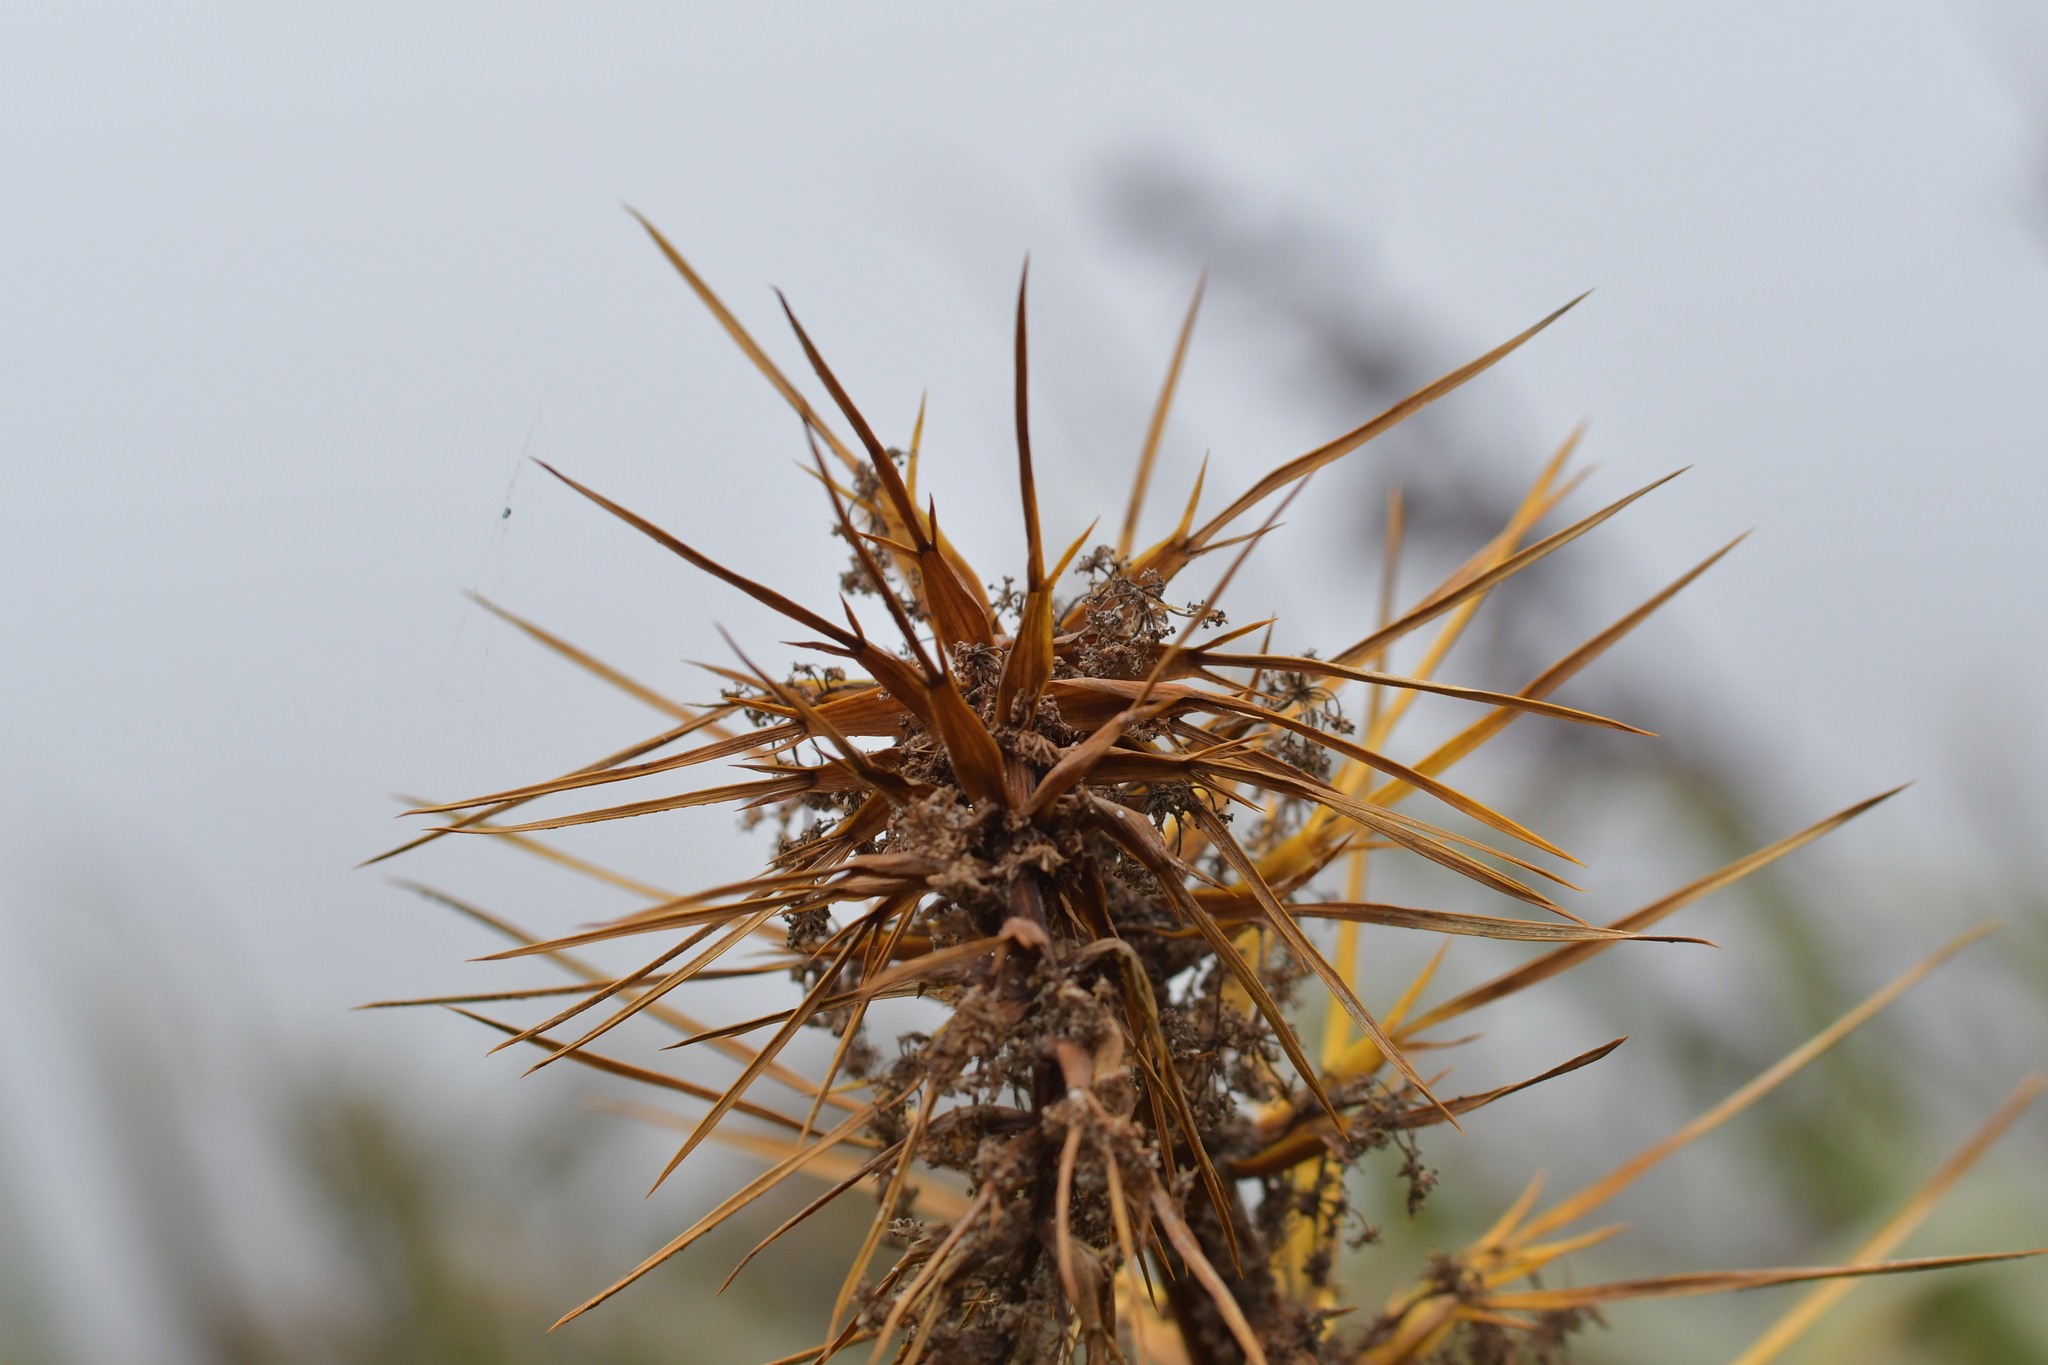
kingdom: Plantae
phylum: Tracheophyta
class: Magnoliopsida
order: Apiales
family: Apiaceae
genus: Aciphylla
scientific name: Aciphylla scott-thomsonii
